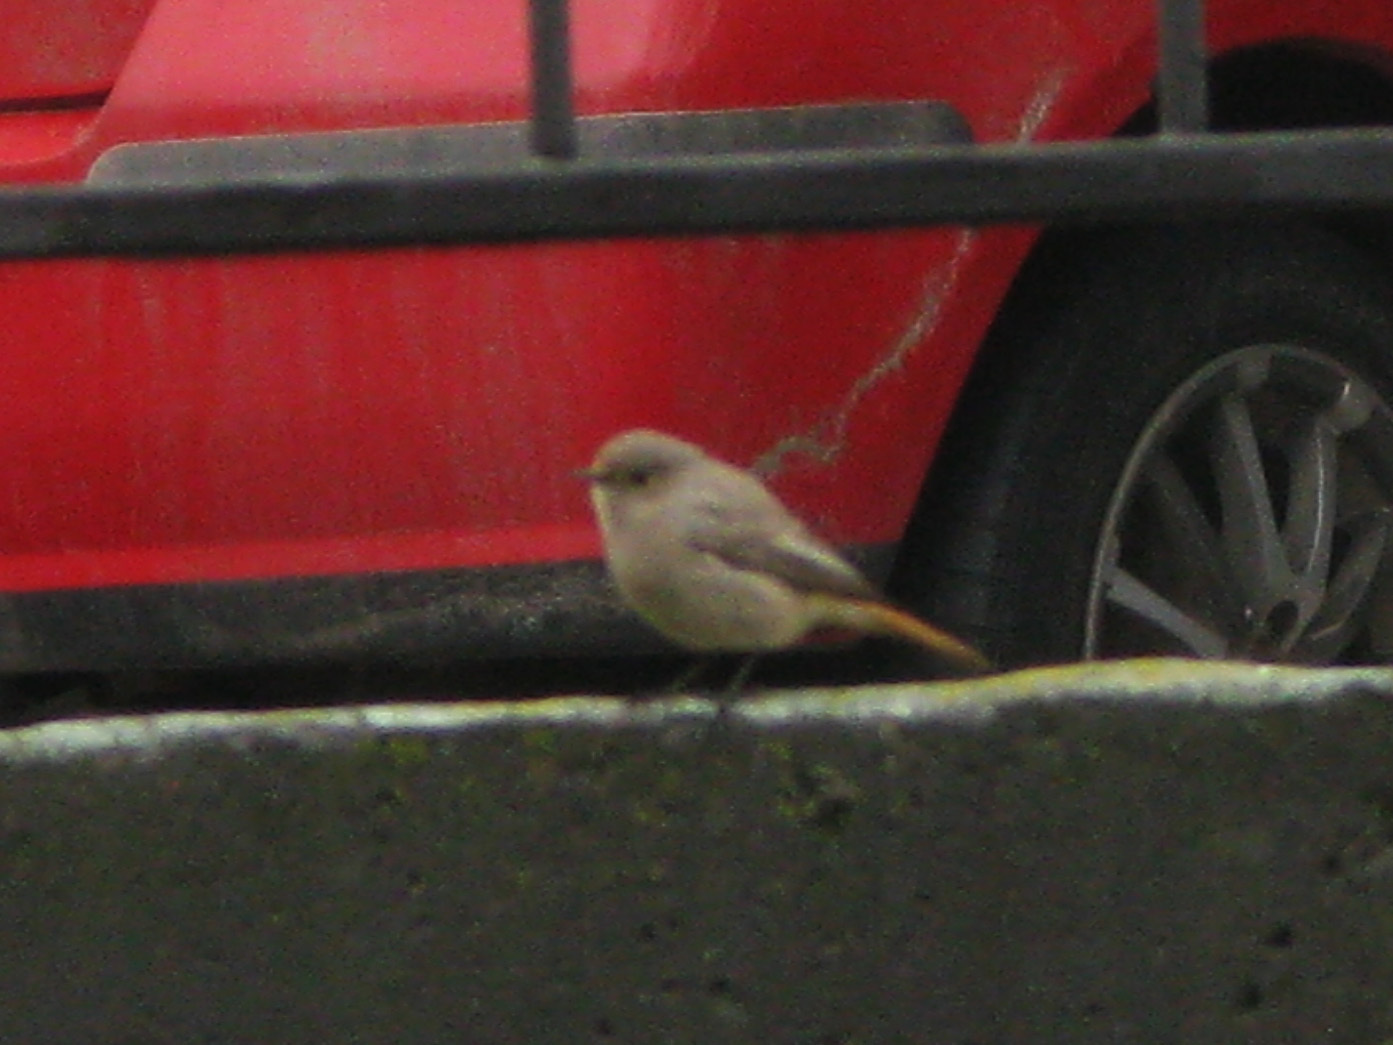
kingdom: Animalia
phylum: Chordata
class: Aves
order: Passeriformes
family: Muscicapidae
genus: Phoenicurus
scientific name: Phoenicurus ochruros
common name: Black redstart
